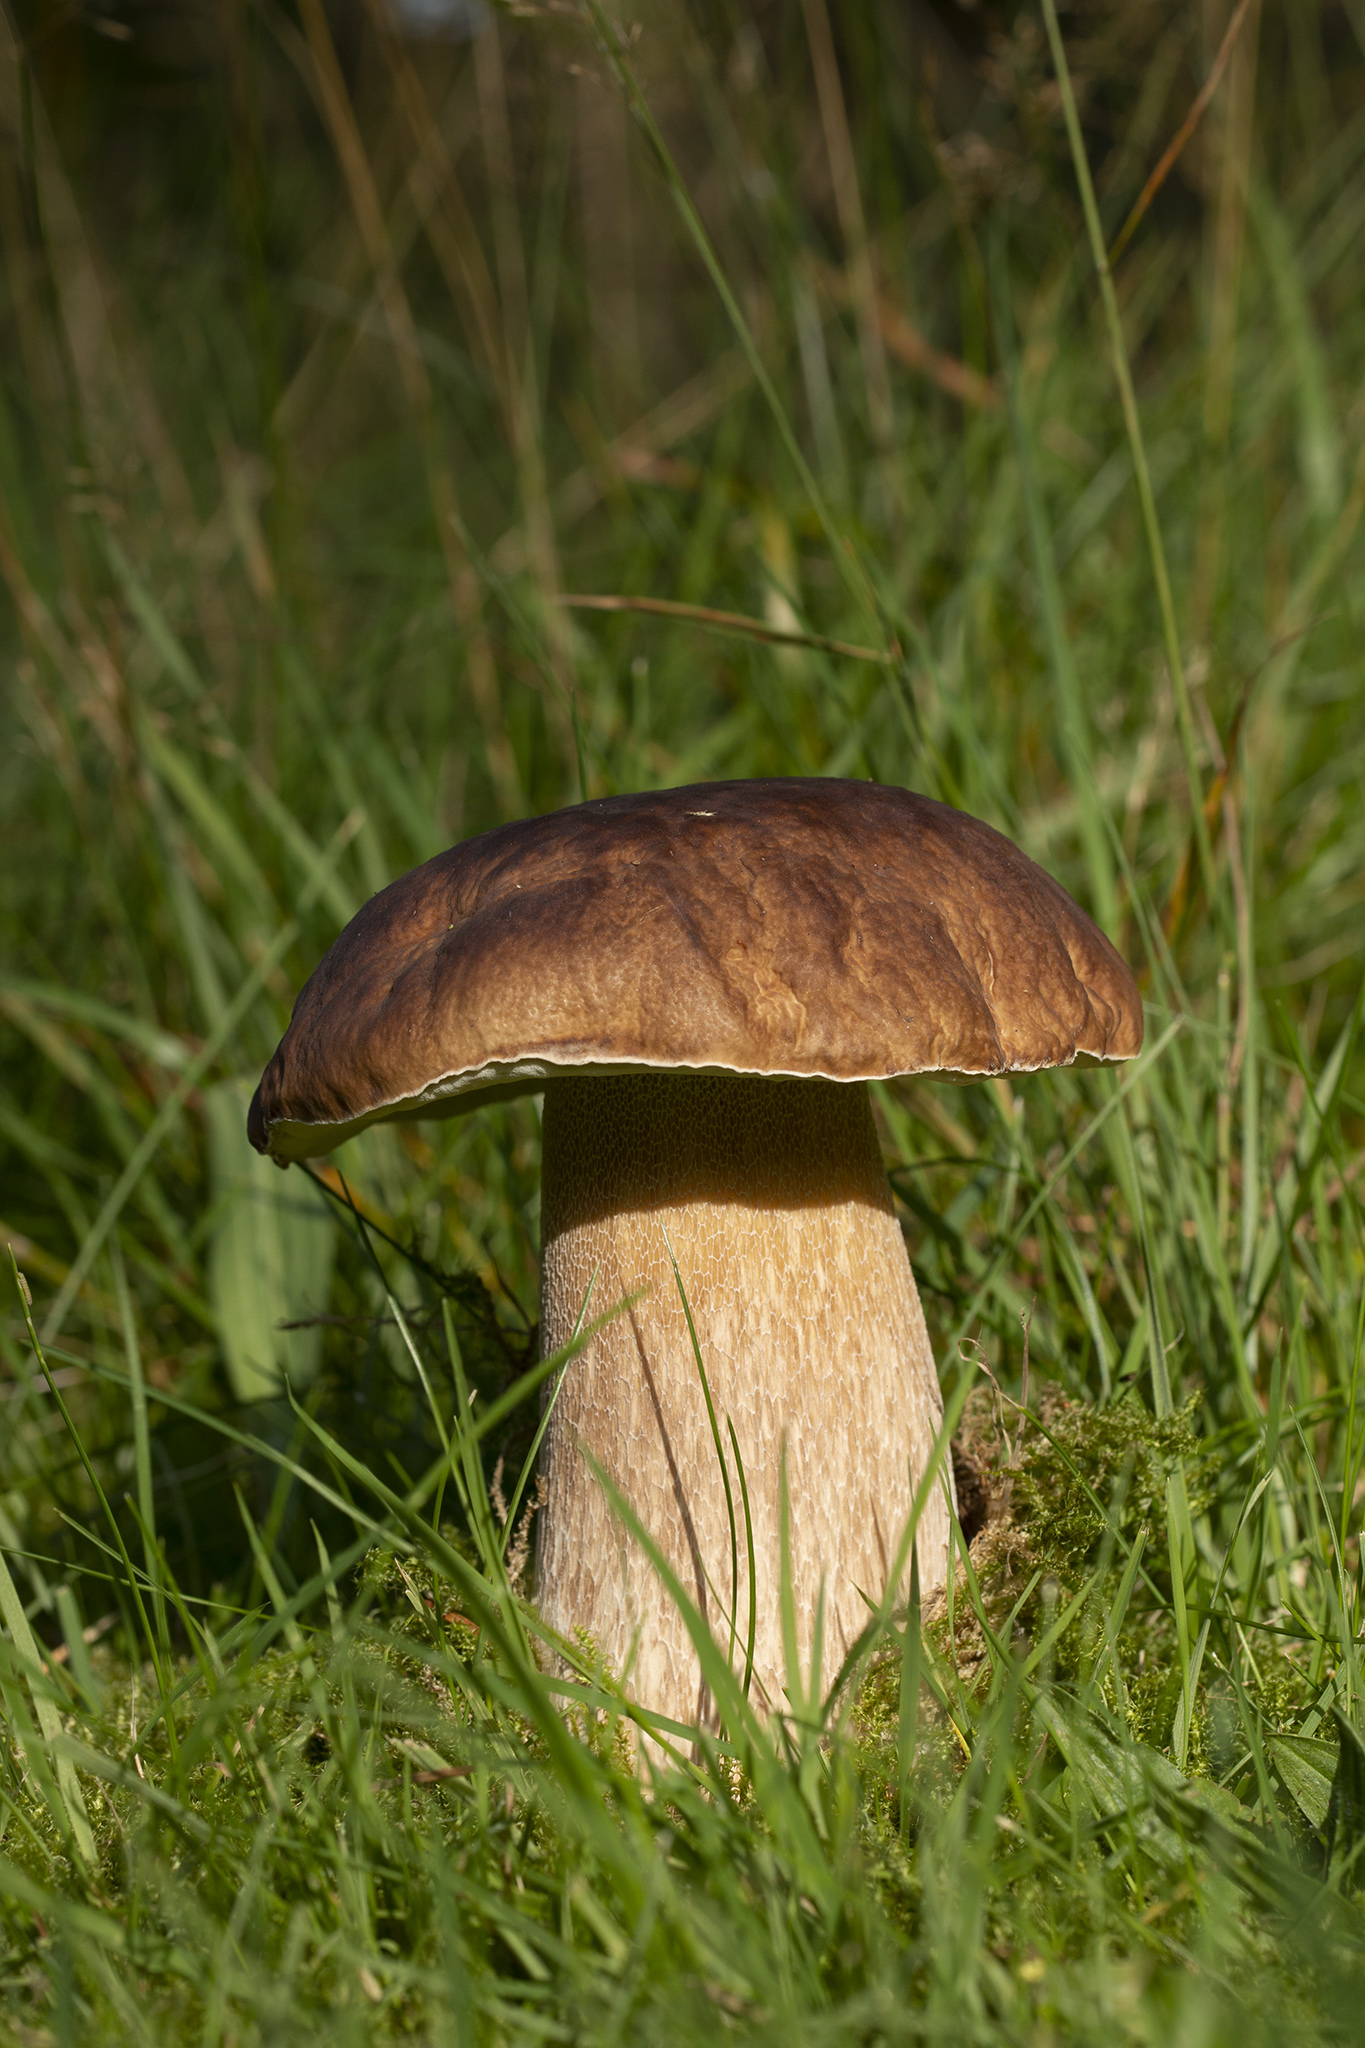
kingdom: Fungi
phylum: Basidiomycota
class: Agaricomycetes
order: Boletales
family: Boletaceae
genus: Boletus
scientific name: Boletus edulis
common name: Cep
